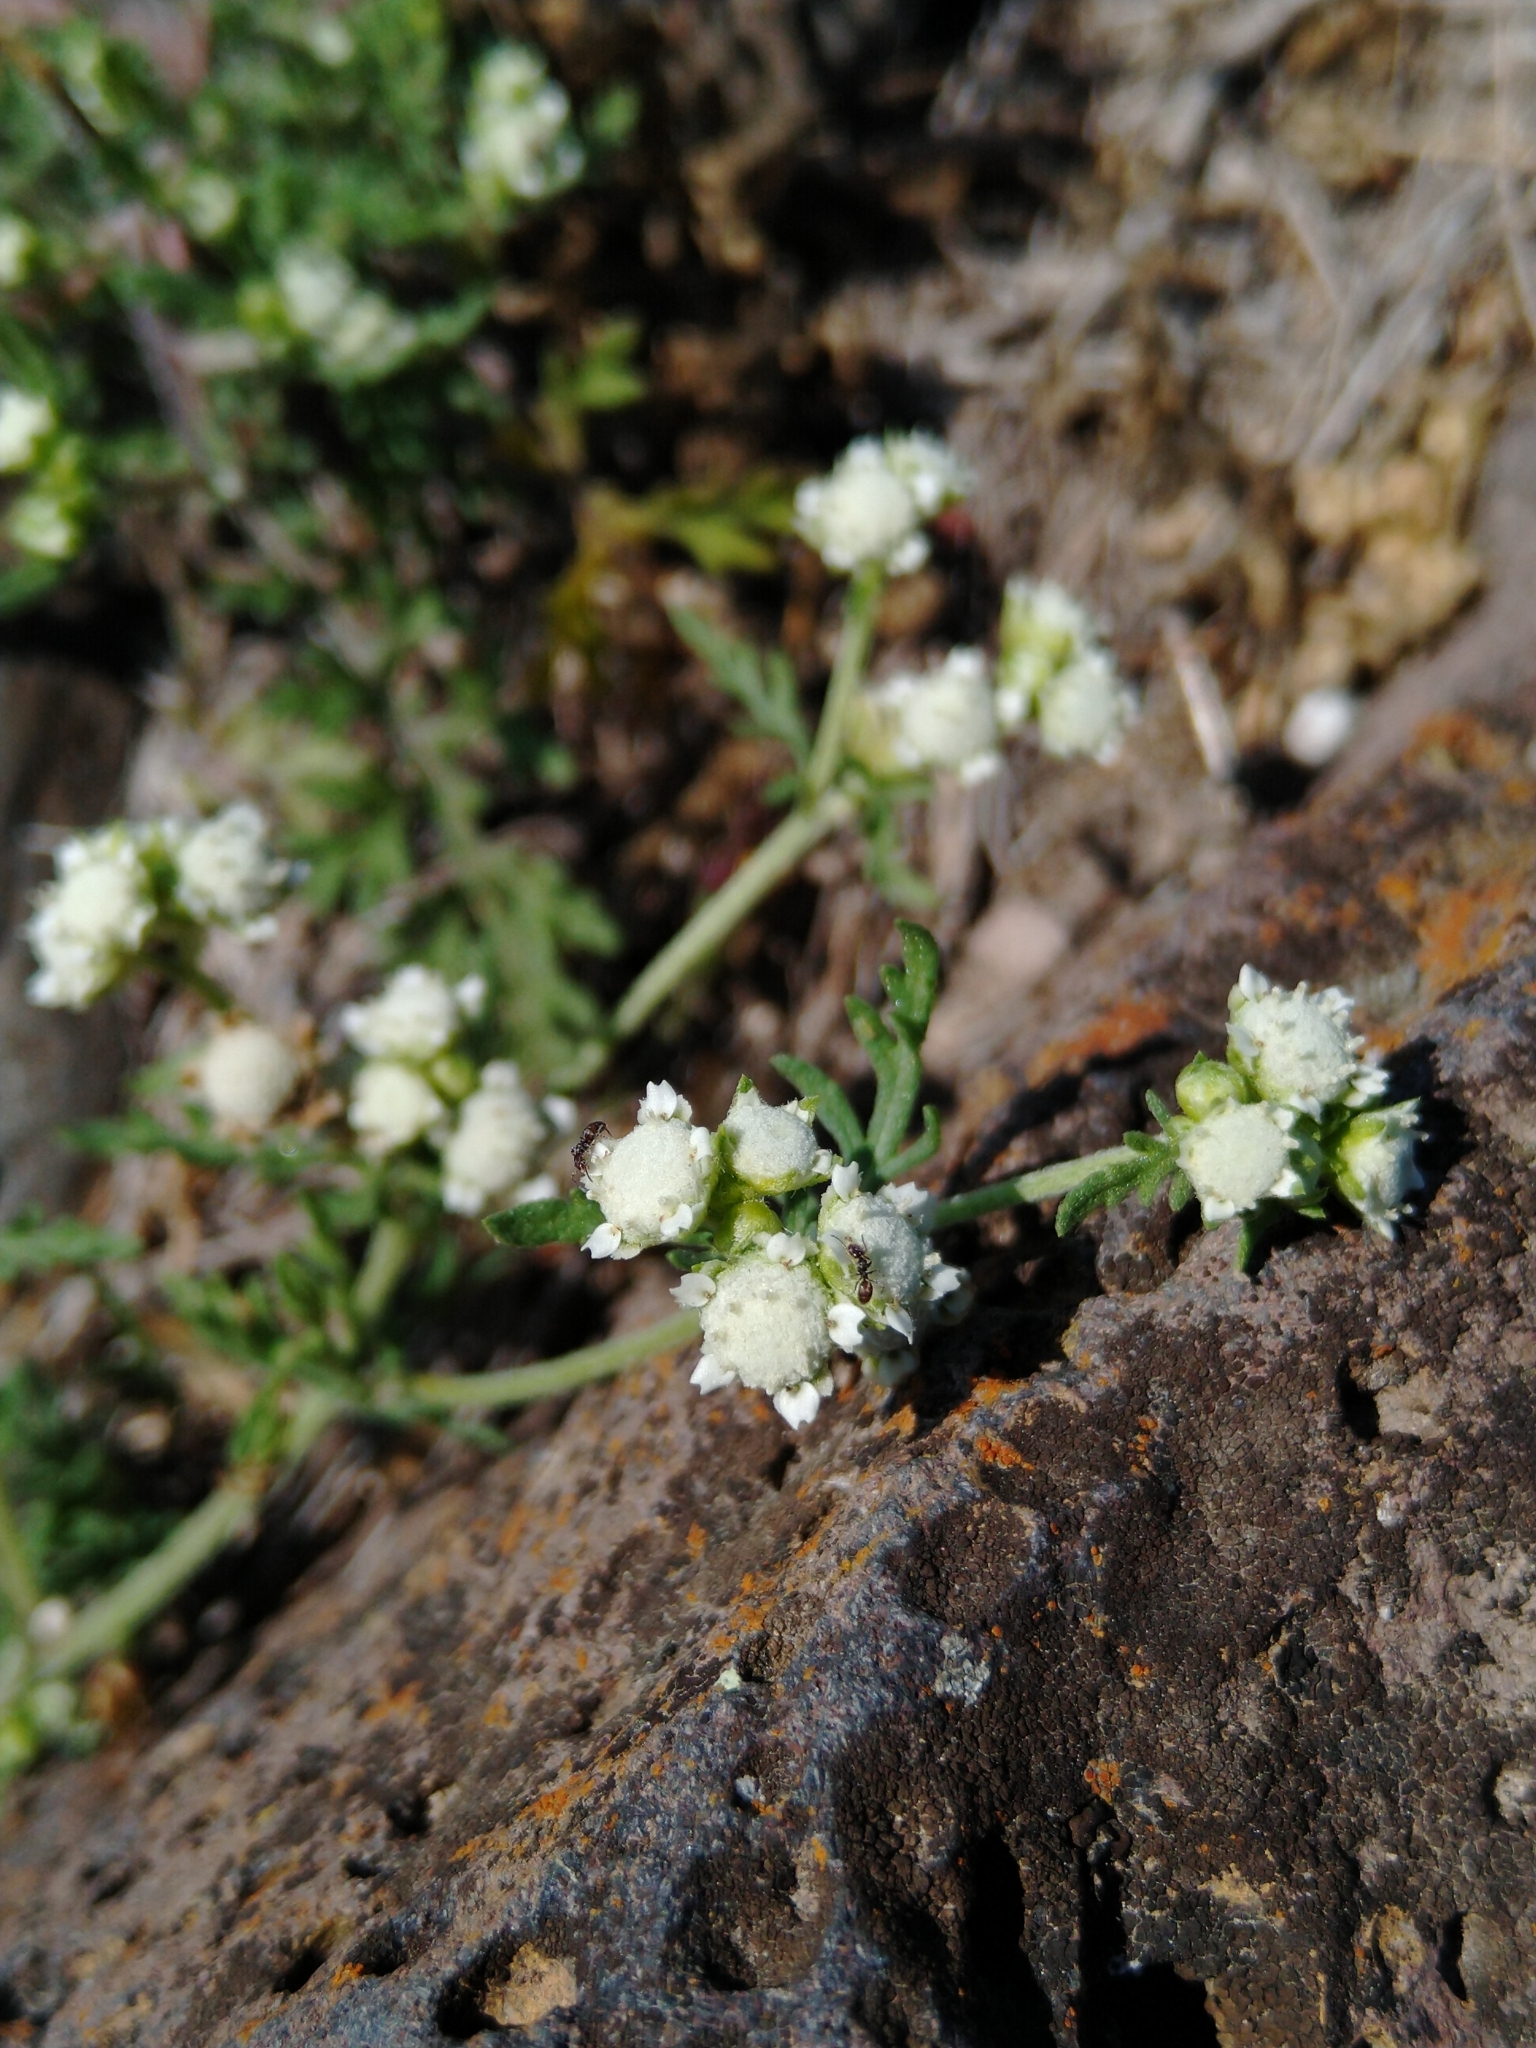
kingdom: Plantae
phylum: Tracheophyta
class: Magnoliopsida
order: Asterales
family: Asteraceae
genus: Parthenium
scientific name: Parthenium bipinnatifidum
